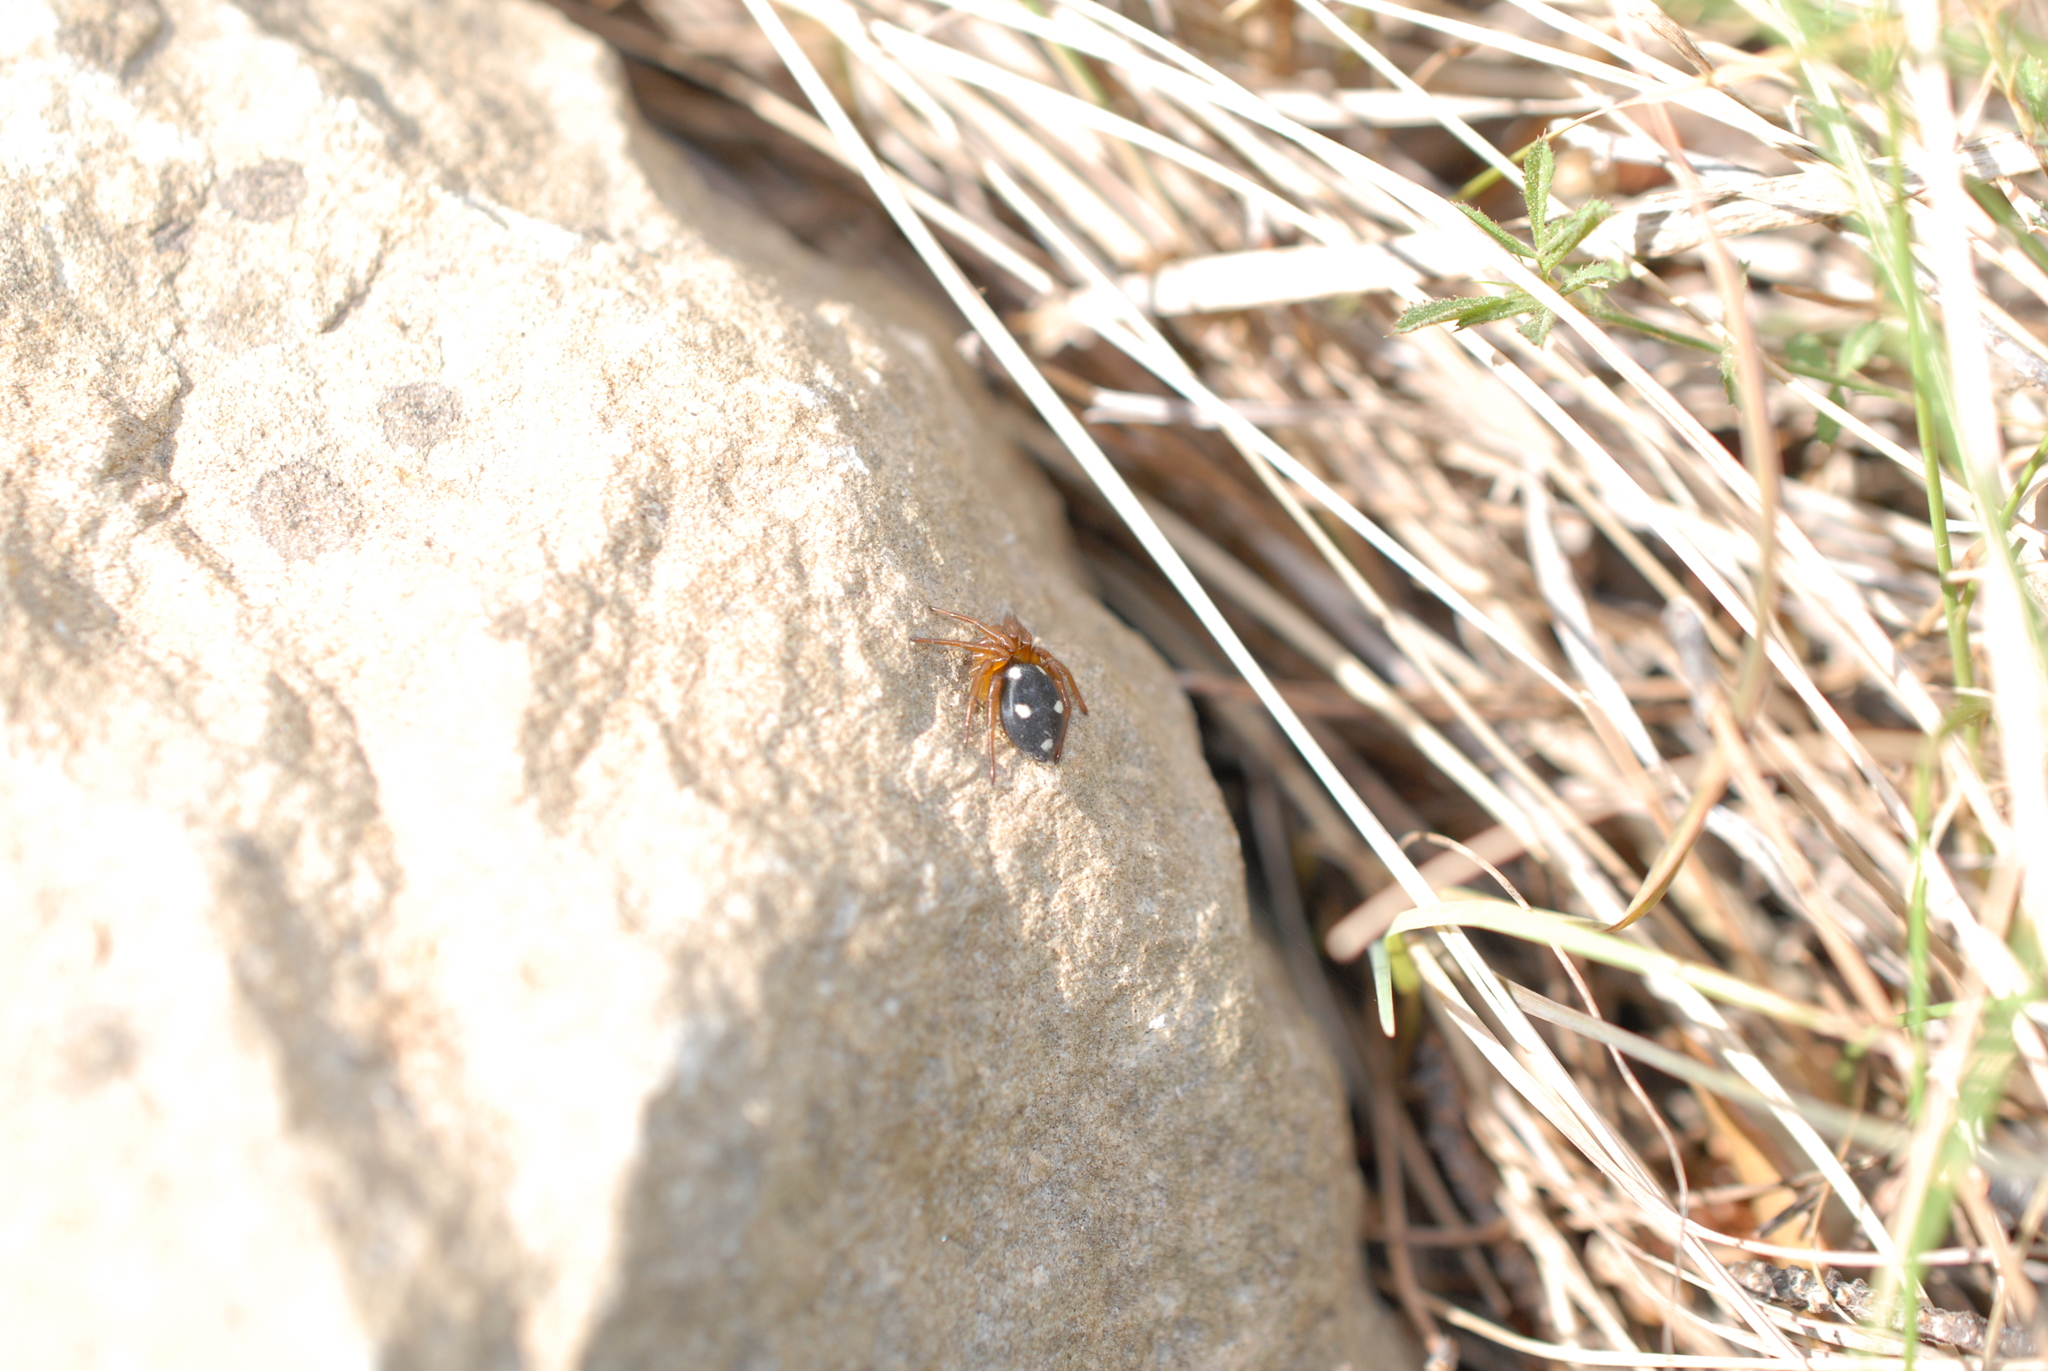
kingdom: Animalia
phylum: Arthropoda
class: Arachnida
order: Araneae
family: Oecobiidae
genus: Uroctea
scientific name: Uroctea durandi
